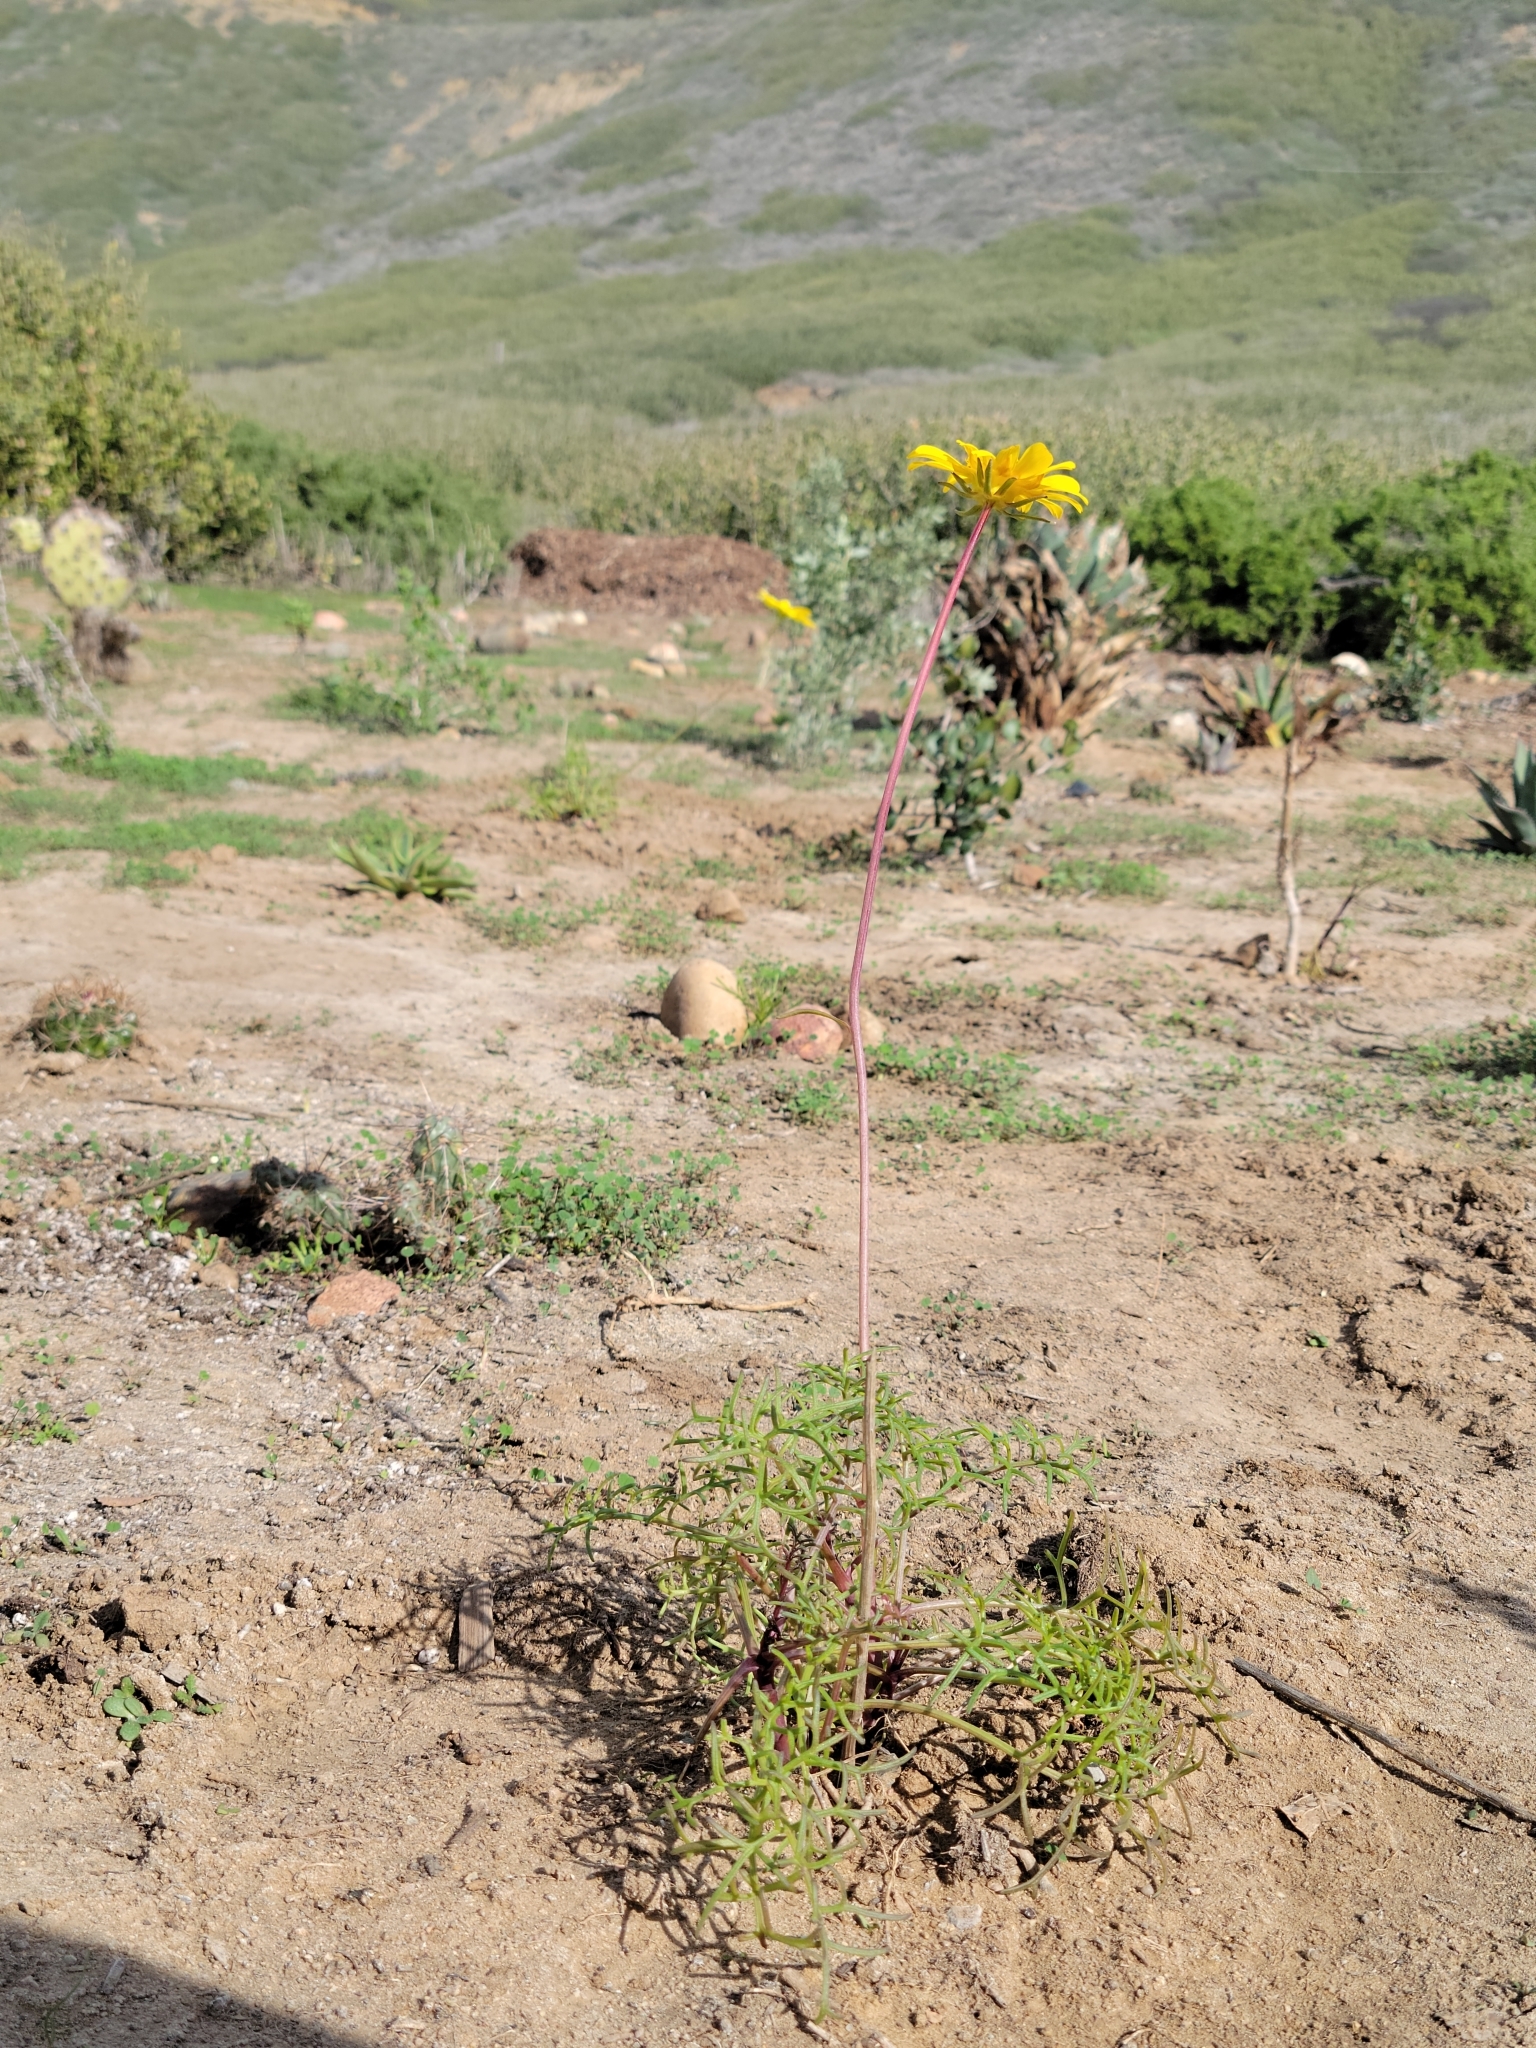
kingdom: Plantae
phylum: Tracheophyta
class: Magnoliopsida
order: Asterales
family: Asteraceae
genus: Coreopsis
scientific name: Coreopsis maritima
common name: Sea-dahlia
